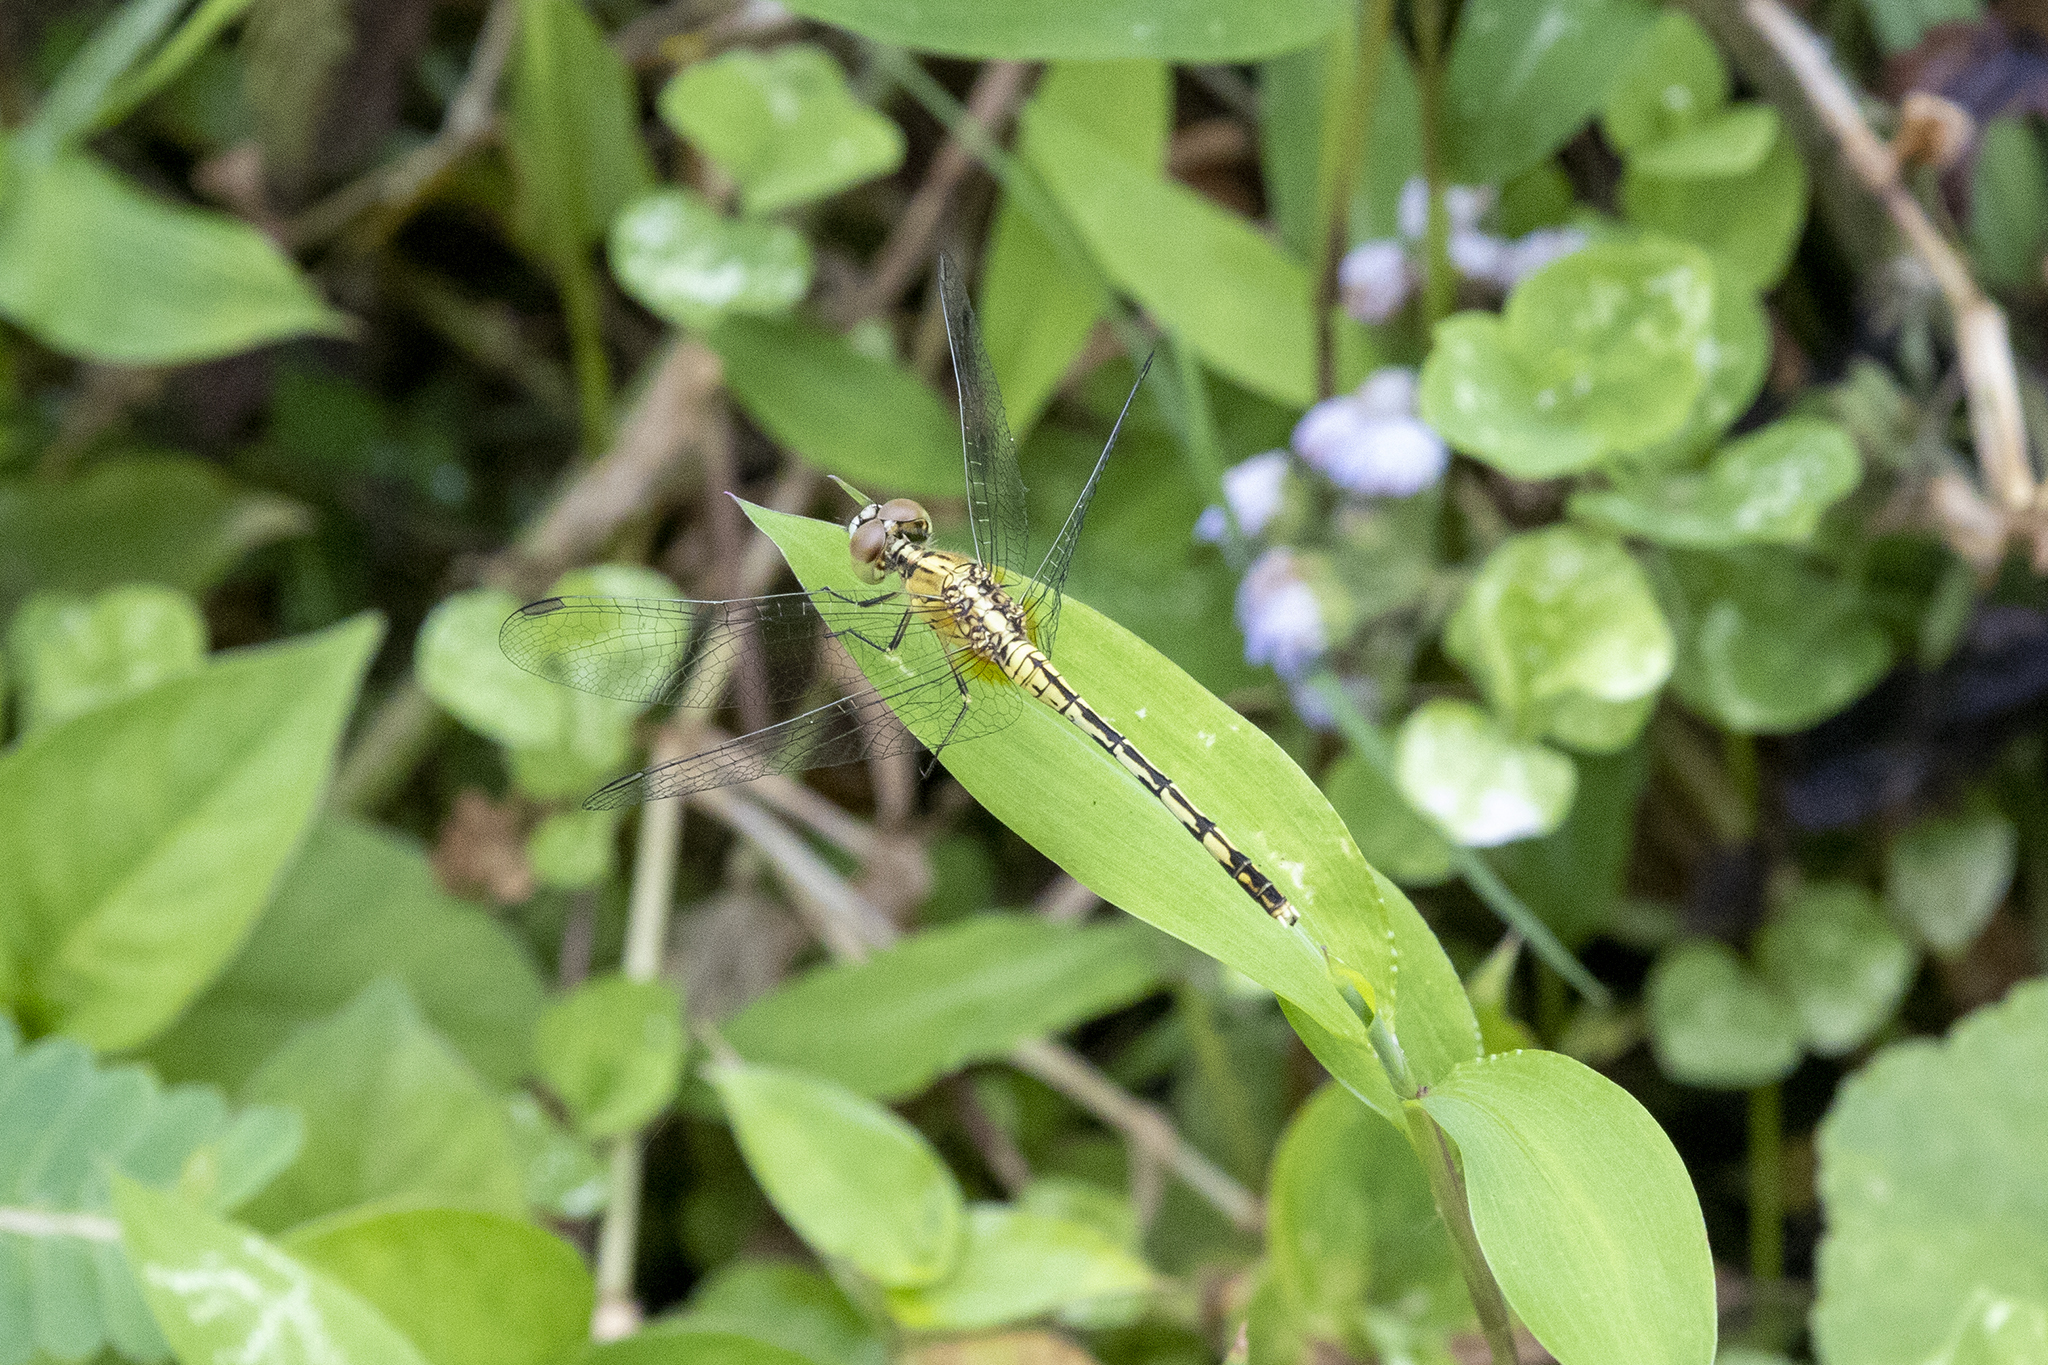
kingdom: Animalia
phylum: Arthropoda
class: Insecta
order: Odonata
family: Libellulidae
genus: Diplacodes
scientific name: Diplacodes trivialis
